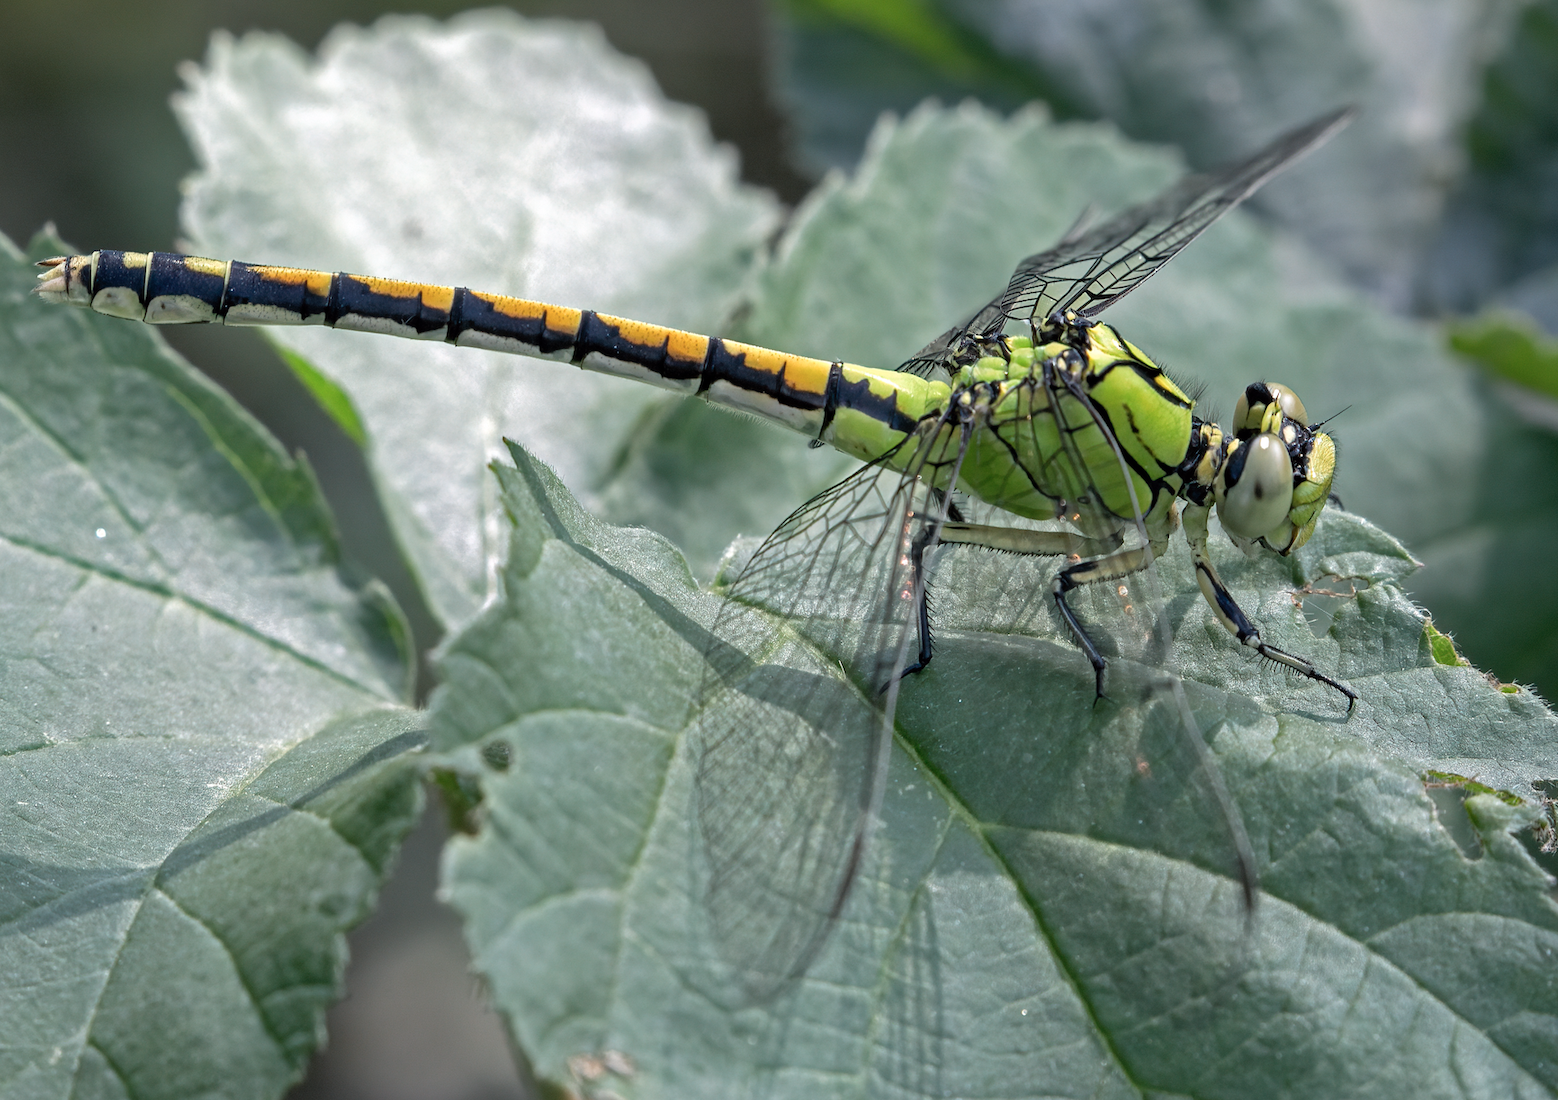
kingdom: Animalia
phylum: Arthropoda
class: Insecta
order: Odonata
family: Gomphidae
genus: Ophiogomphus
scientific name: Ophiogomphus cecilia
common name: Green snaketail
